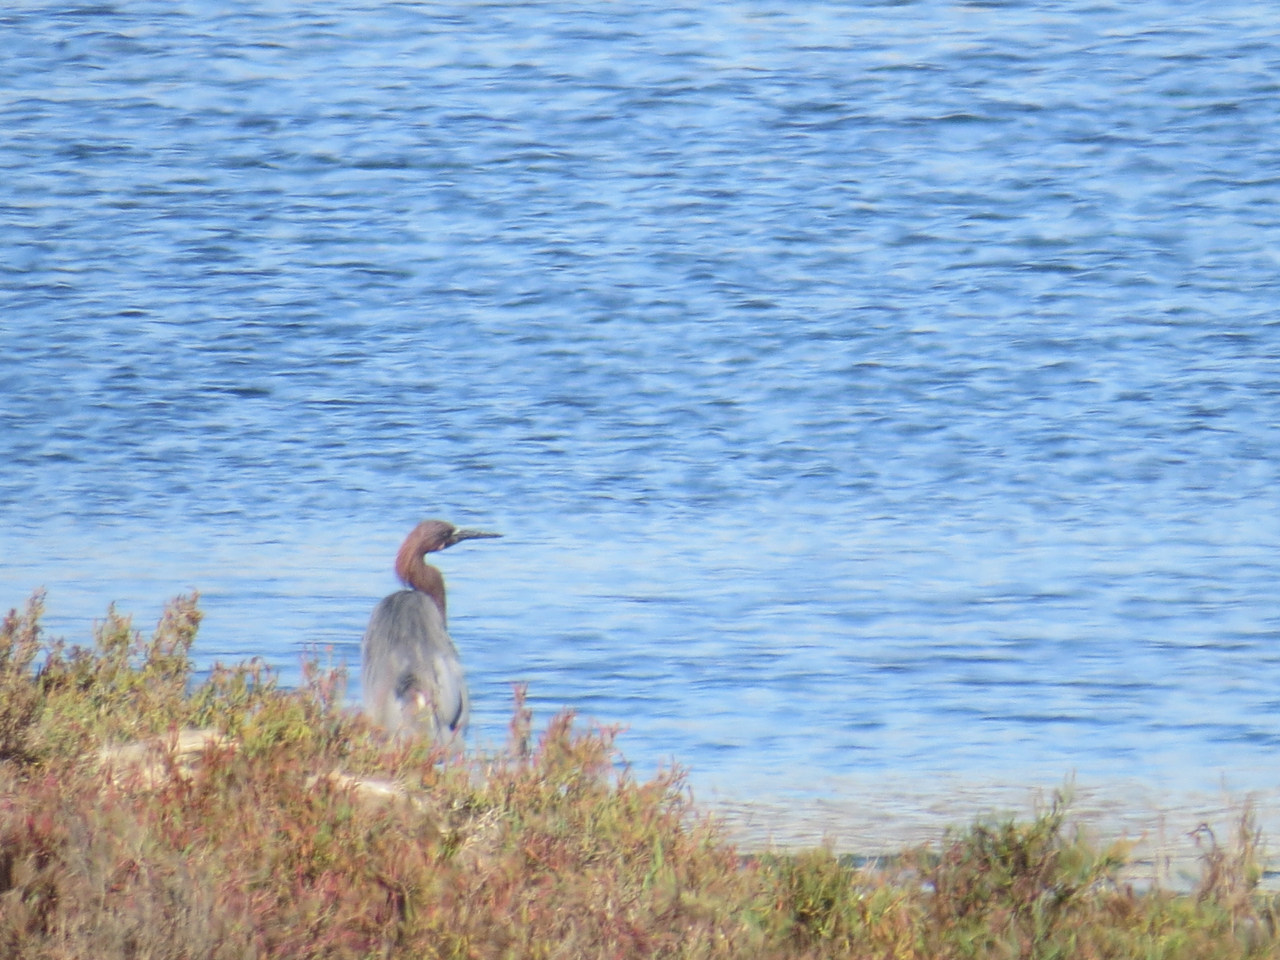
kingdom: Animalia
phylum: Chordata
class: Aves
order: Pelecaniformes
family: Ardeidae
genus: Egretta
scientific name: Egretta rufescens
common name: Reddish egret
